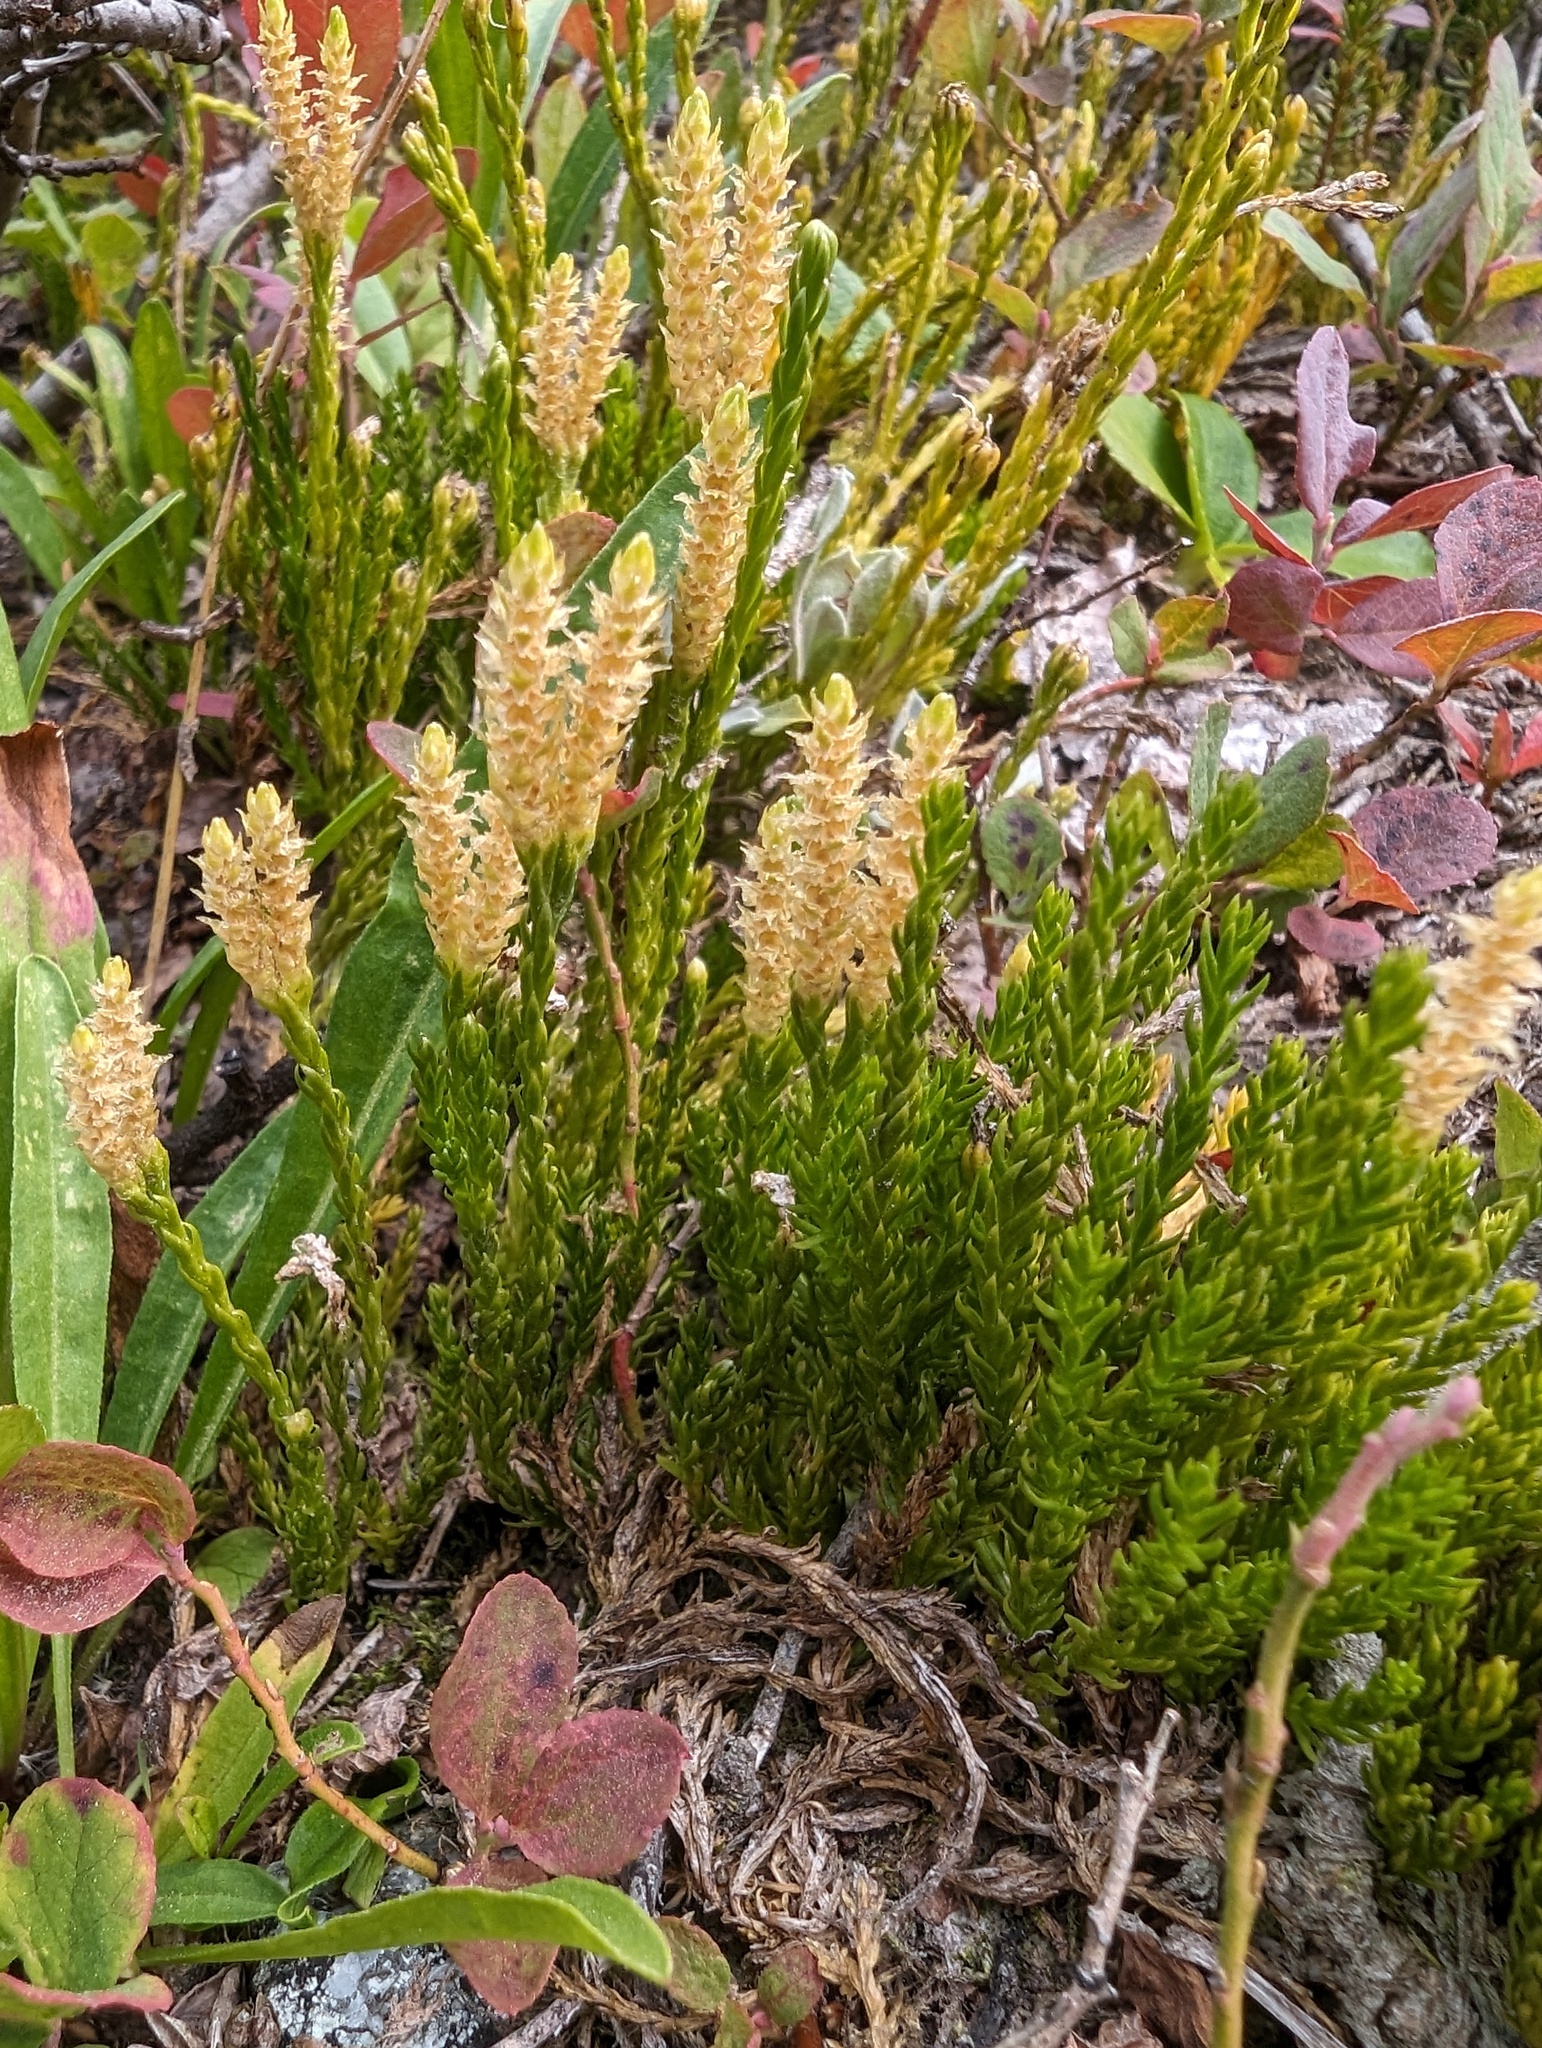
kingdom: Plantae
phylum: Tracheophyta
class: Lycopodiopsida
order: Lycopodiales
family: Lycopodiaceae
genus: Diphasiastrum
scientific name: Diphasiastrum sitchense
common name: Alaska clubmoss
